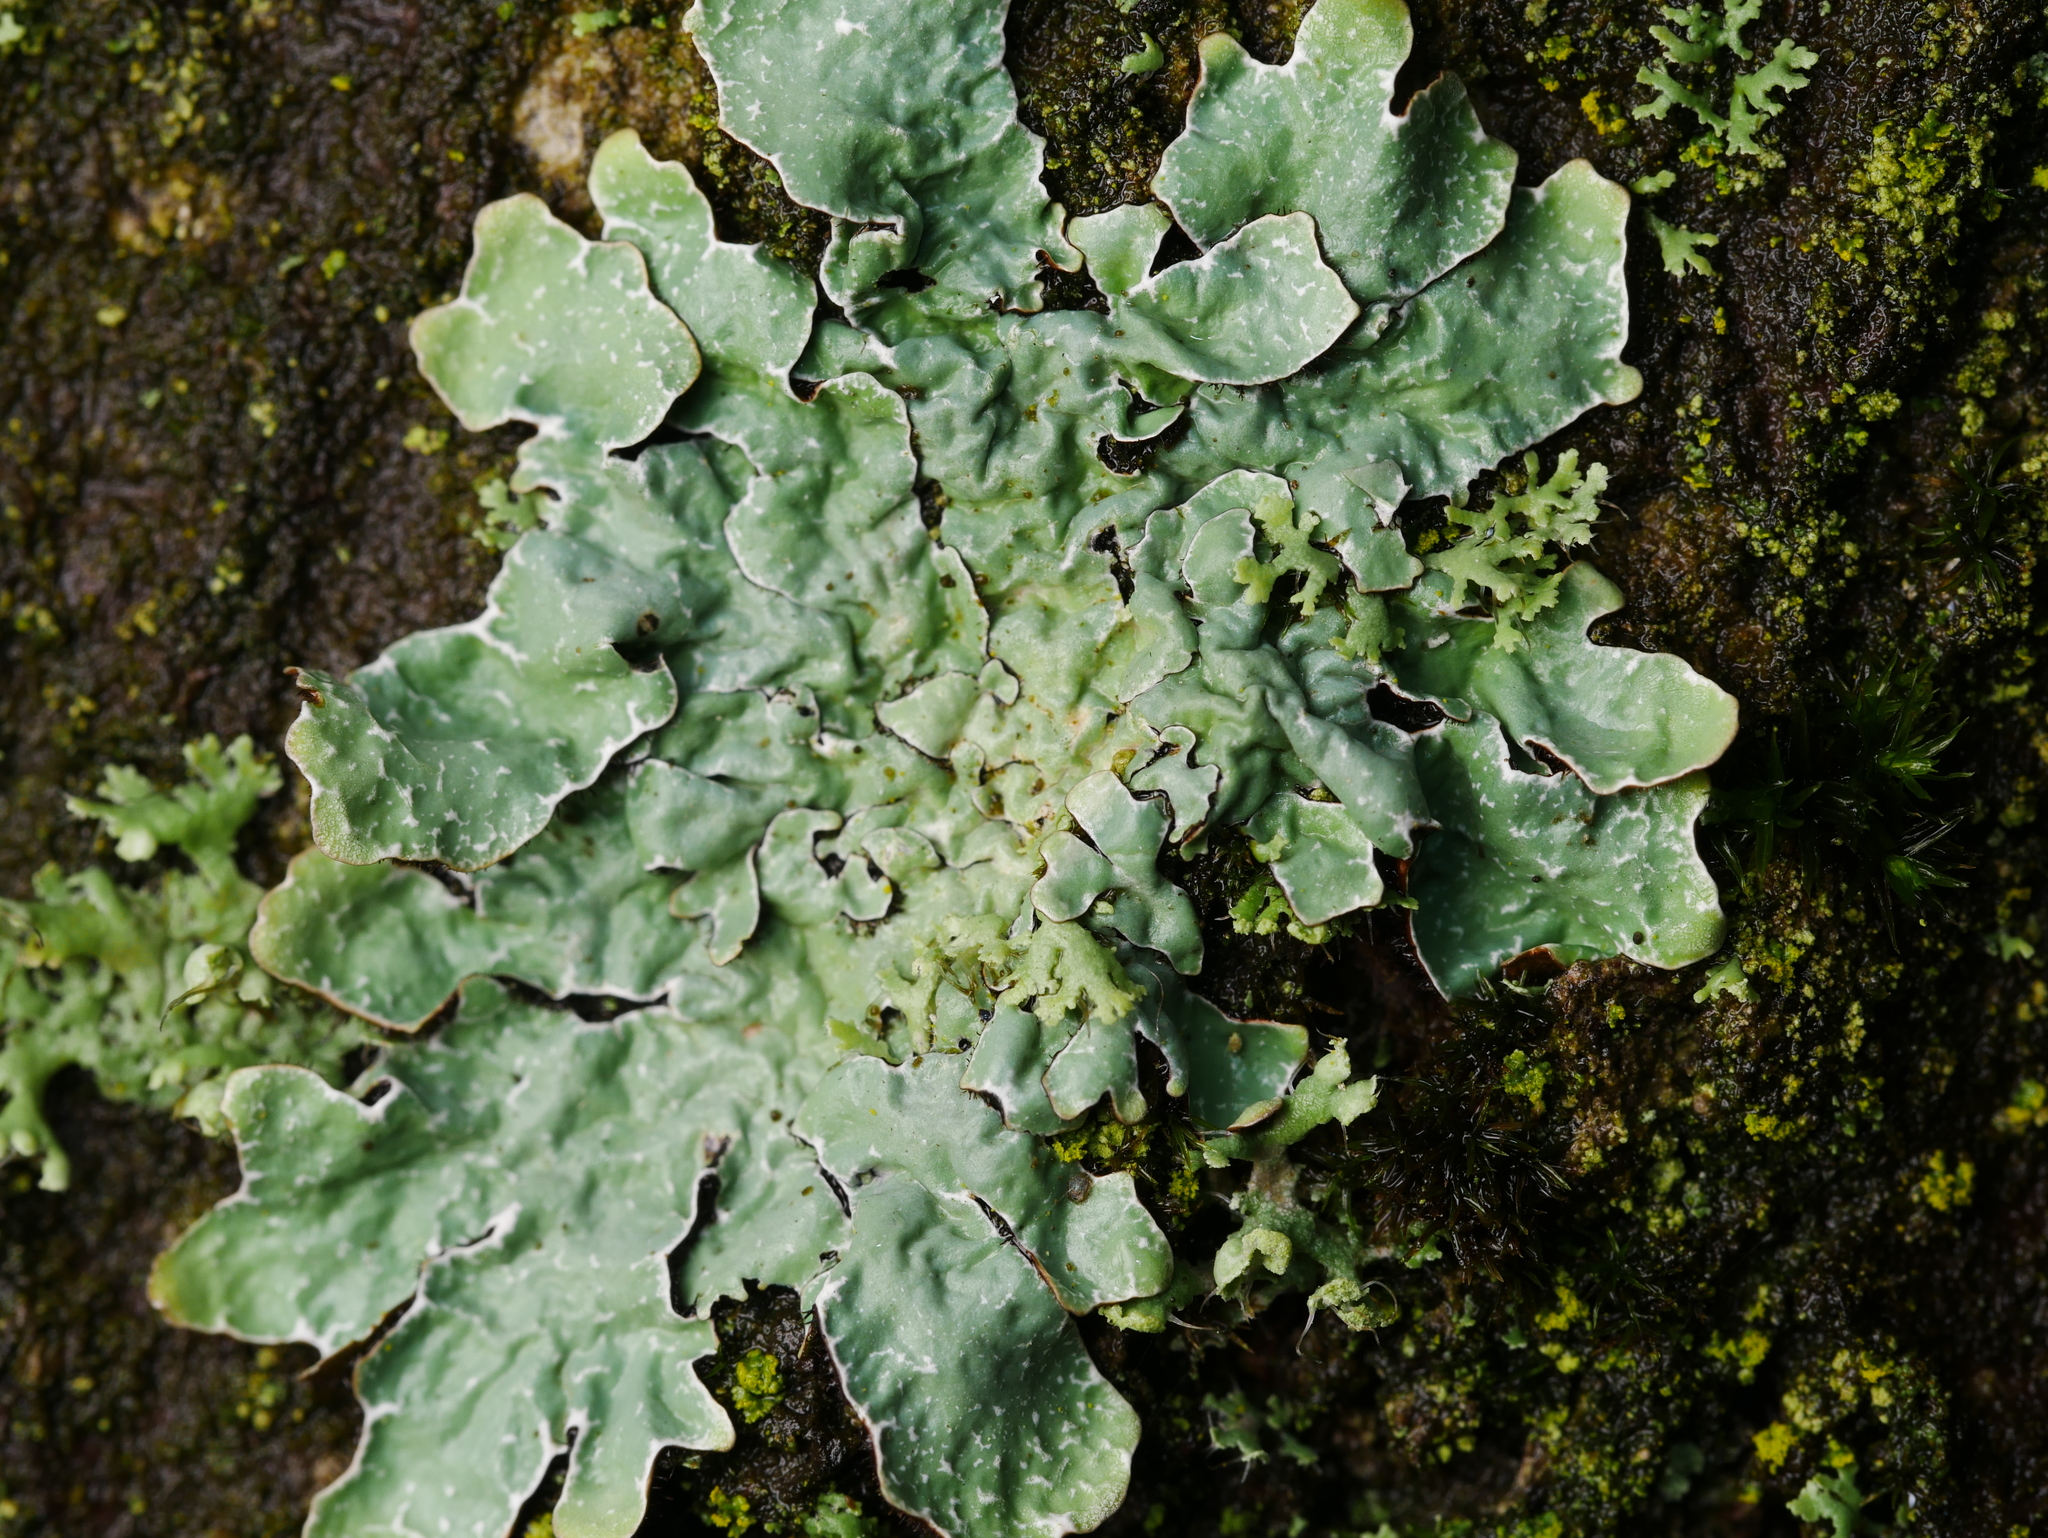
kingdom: Fungi
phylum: Ascomycota
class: Lecanoromycetes
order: Lecanorales
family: Parmeliaceae
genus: Parmelia
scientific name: Parmelia sulcata
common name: Netted shield lichen
